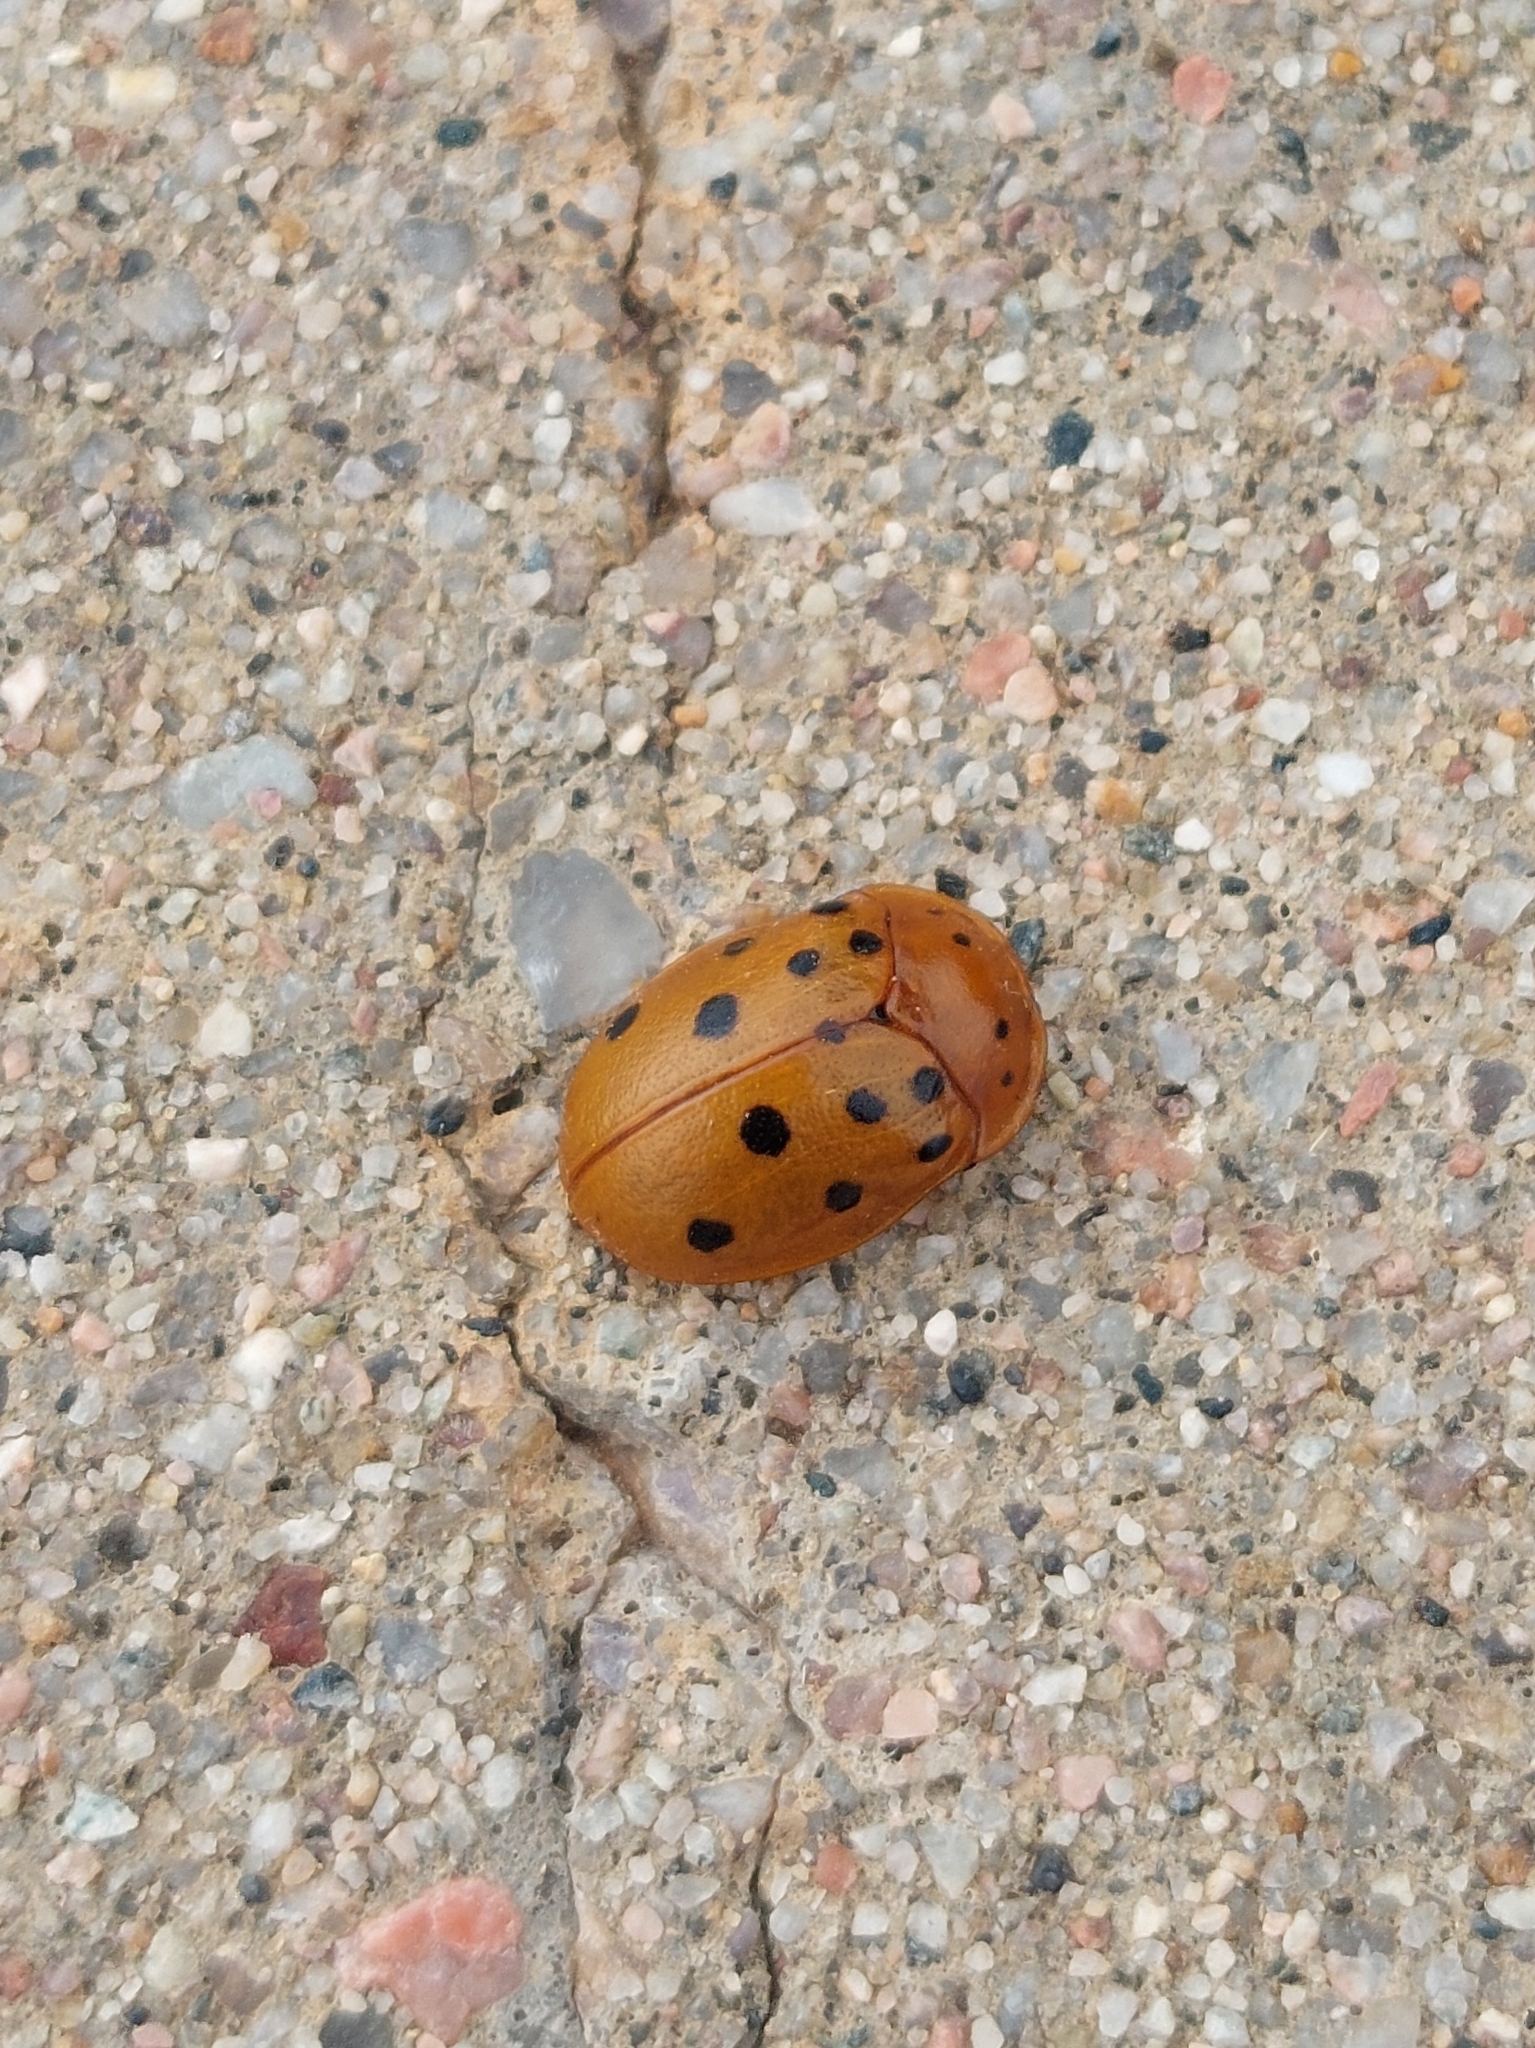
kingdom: Animalia
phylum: Arthropoda
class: Insecta
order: Coleoptera
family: Chrysomelidae
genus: Chelymorpha
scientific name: Chelymorpha cassidea
